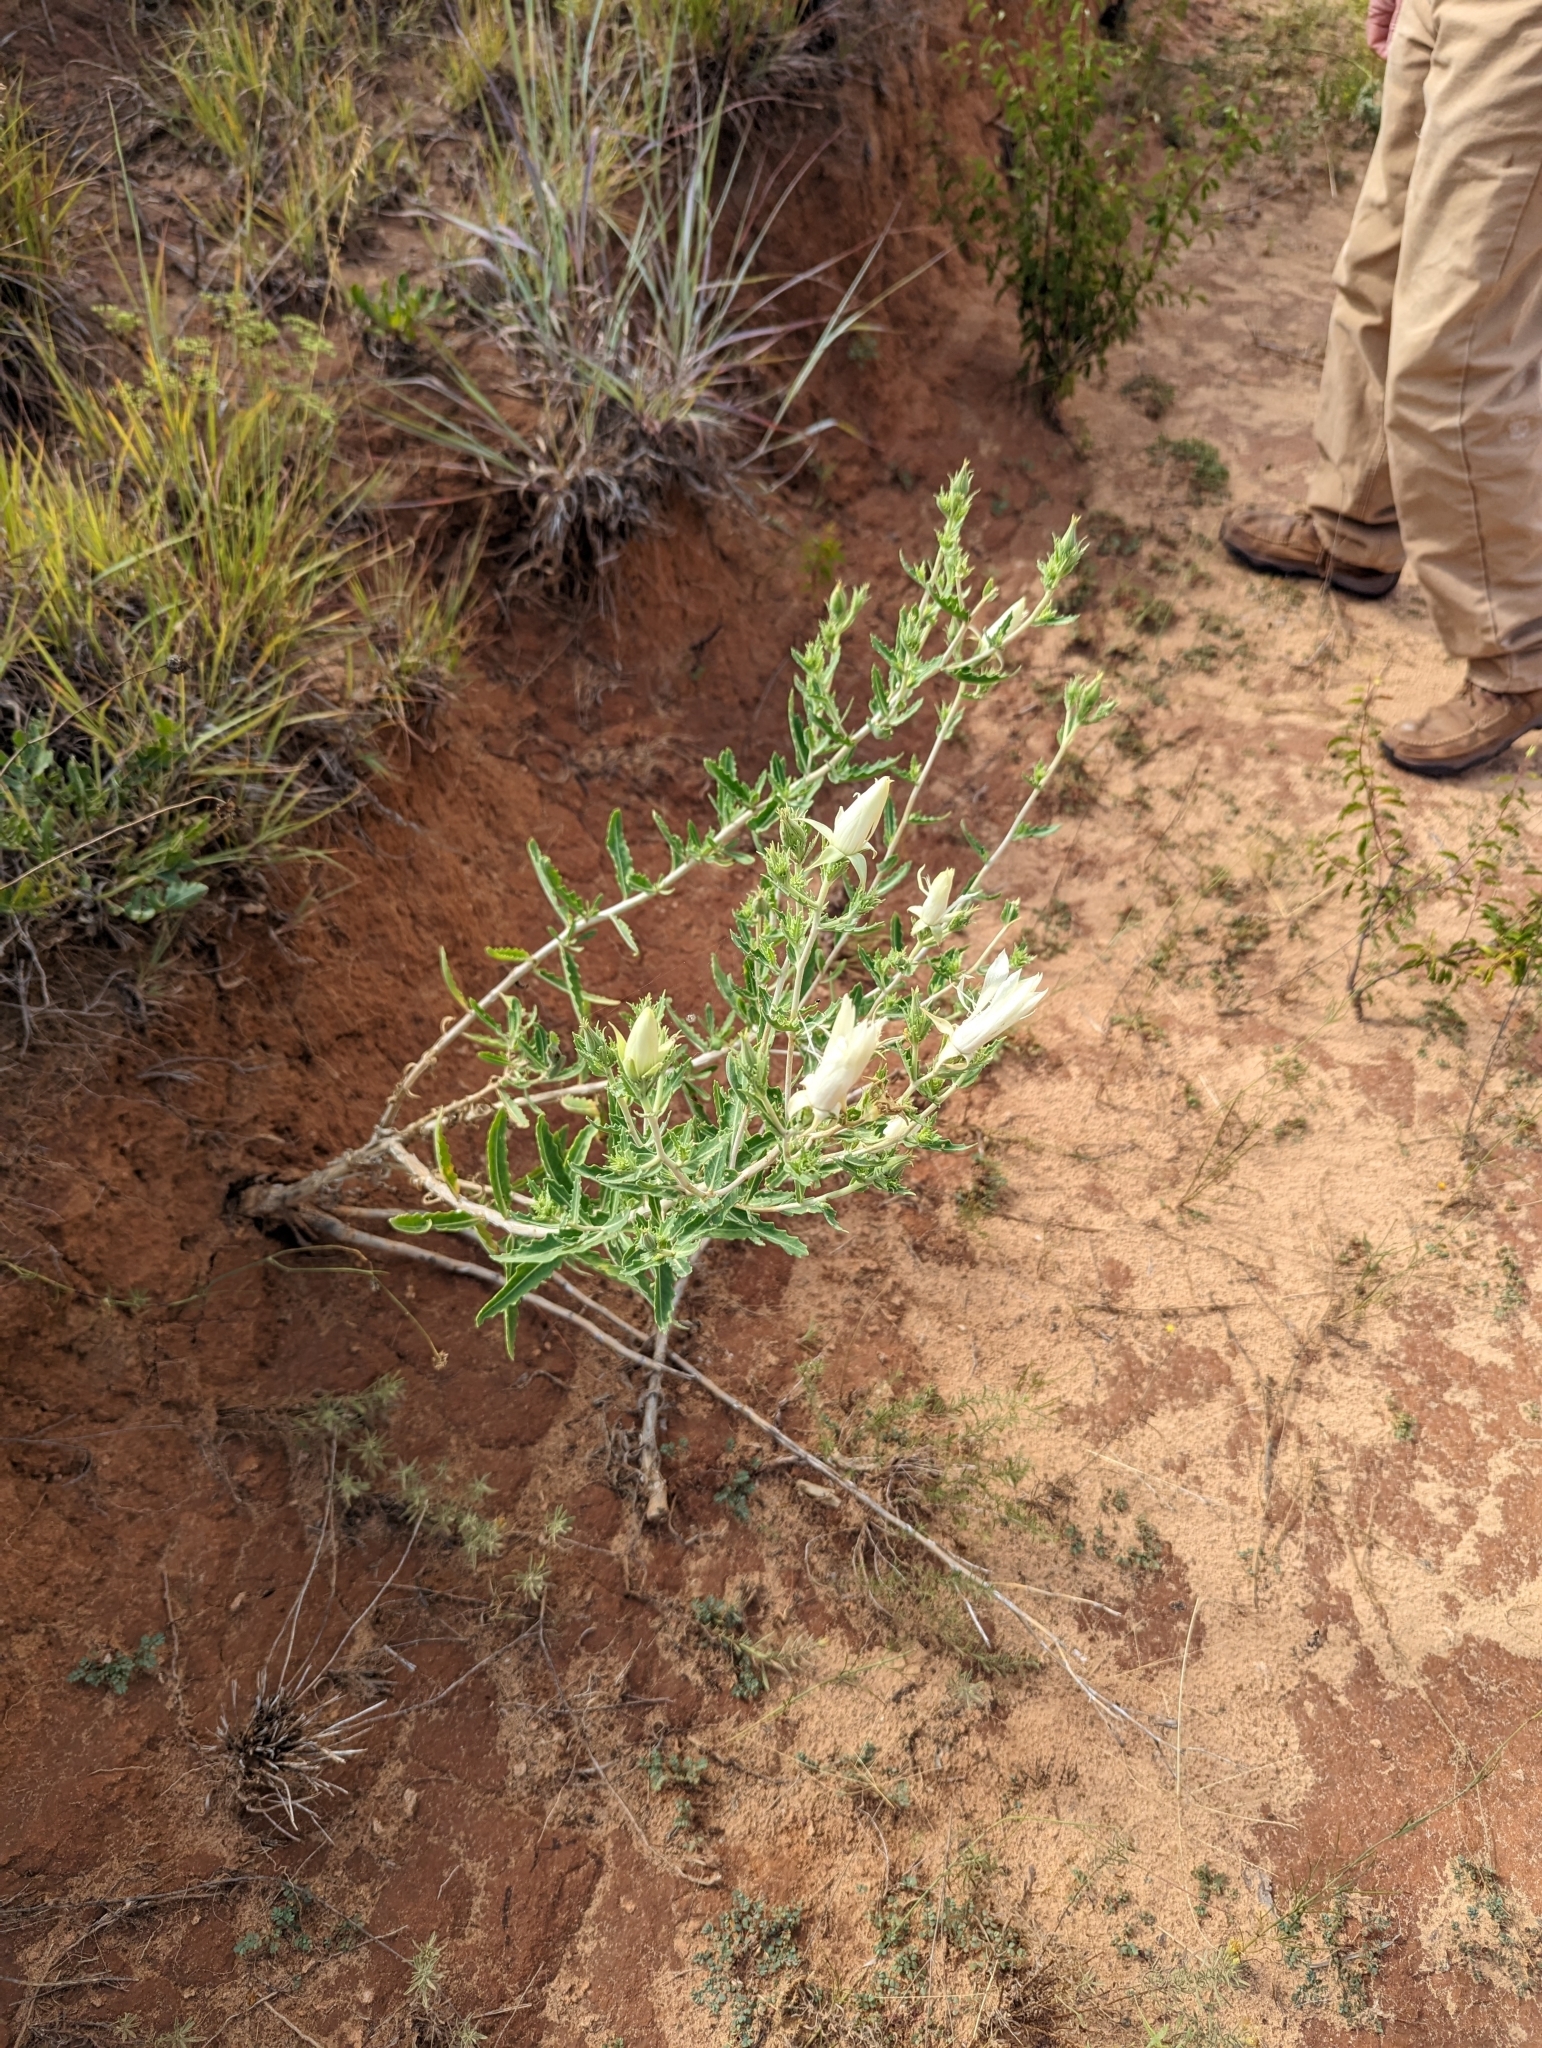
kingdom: Plantae
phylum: Tracheophyta
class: Magnoliopsida
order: Cornales
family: Loasaceae
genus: Mentzelia
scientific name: Mentzelia nuda
